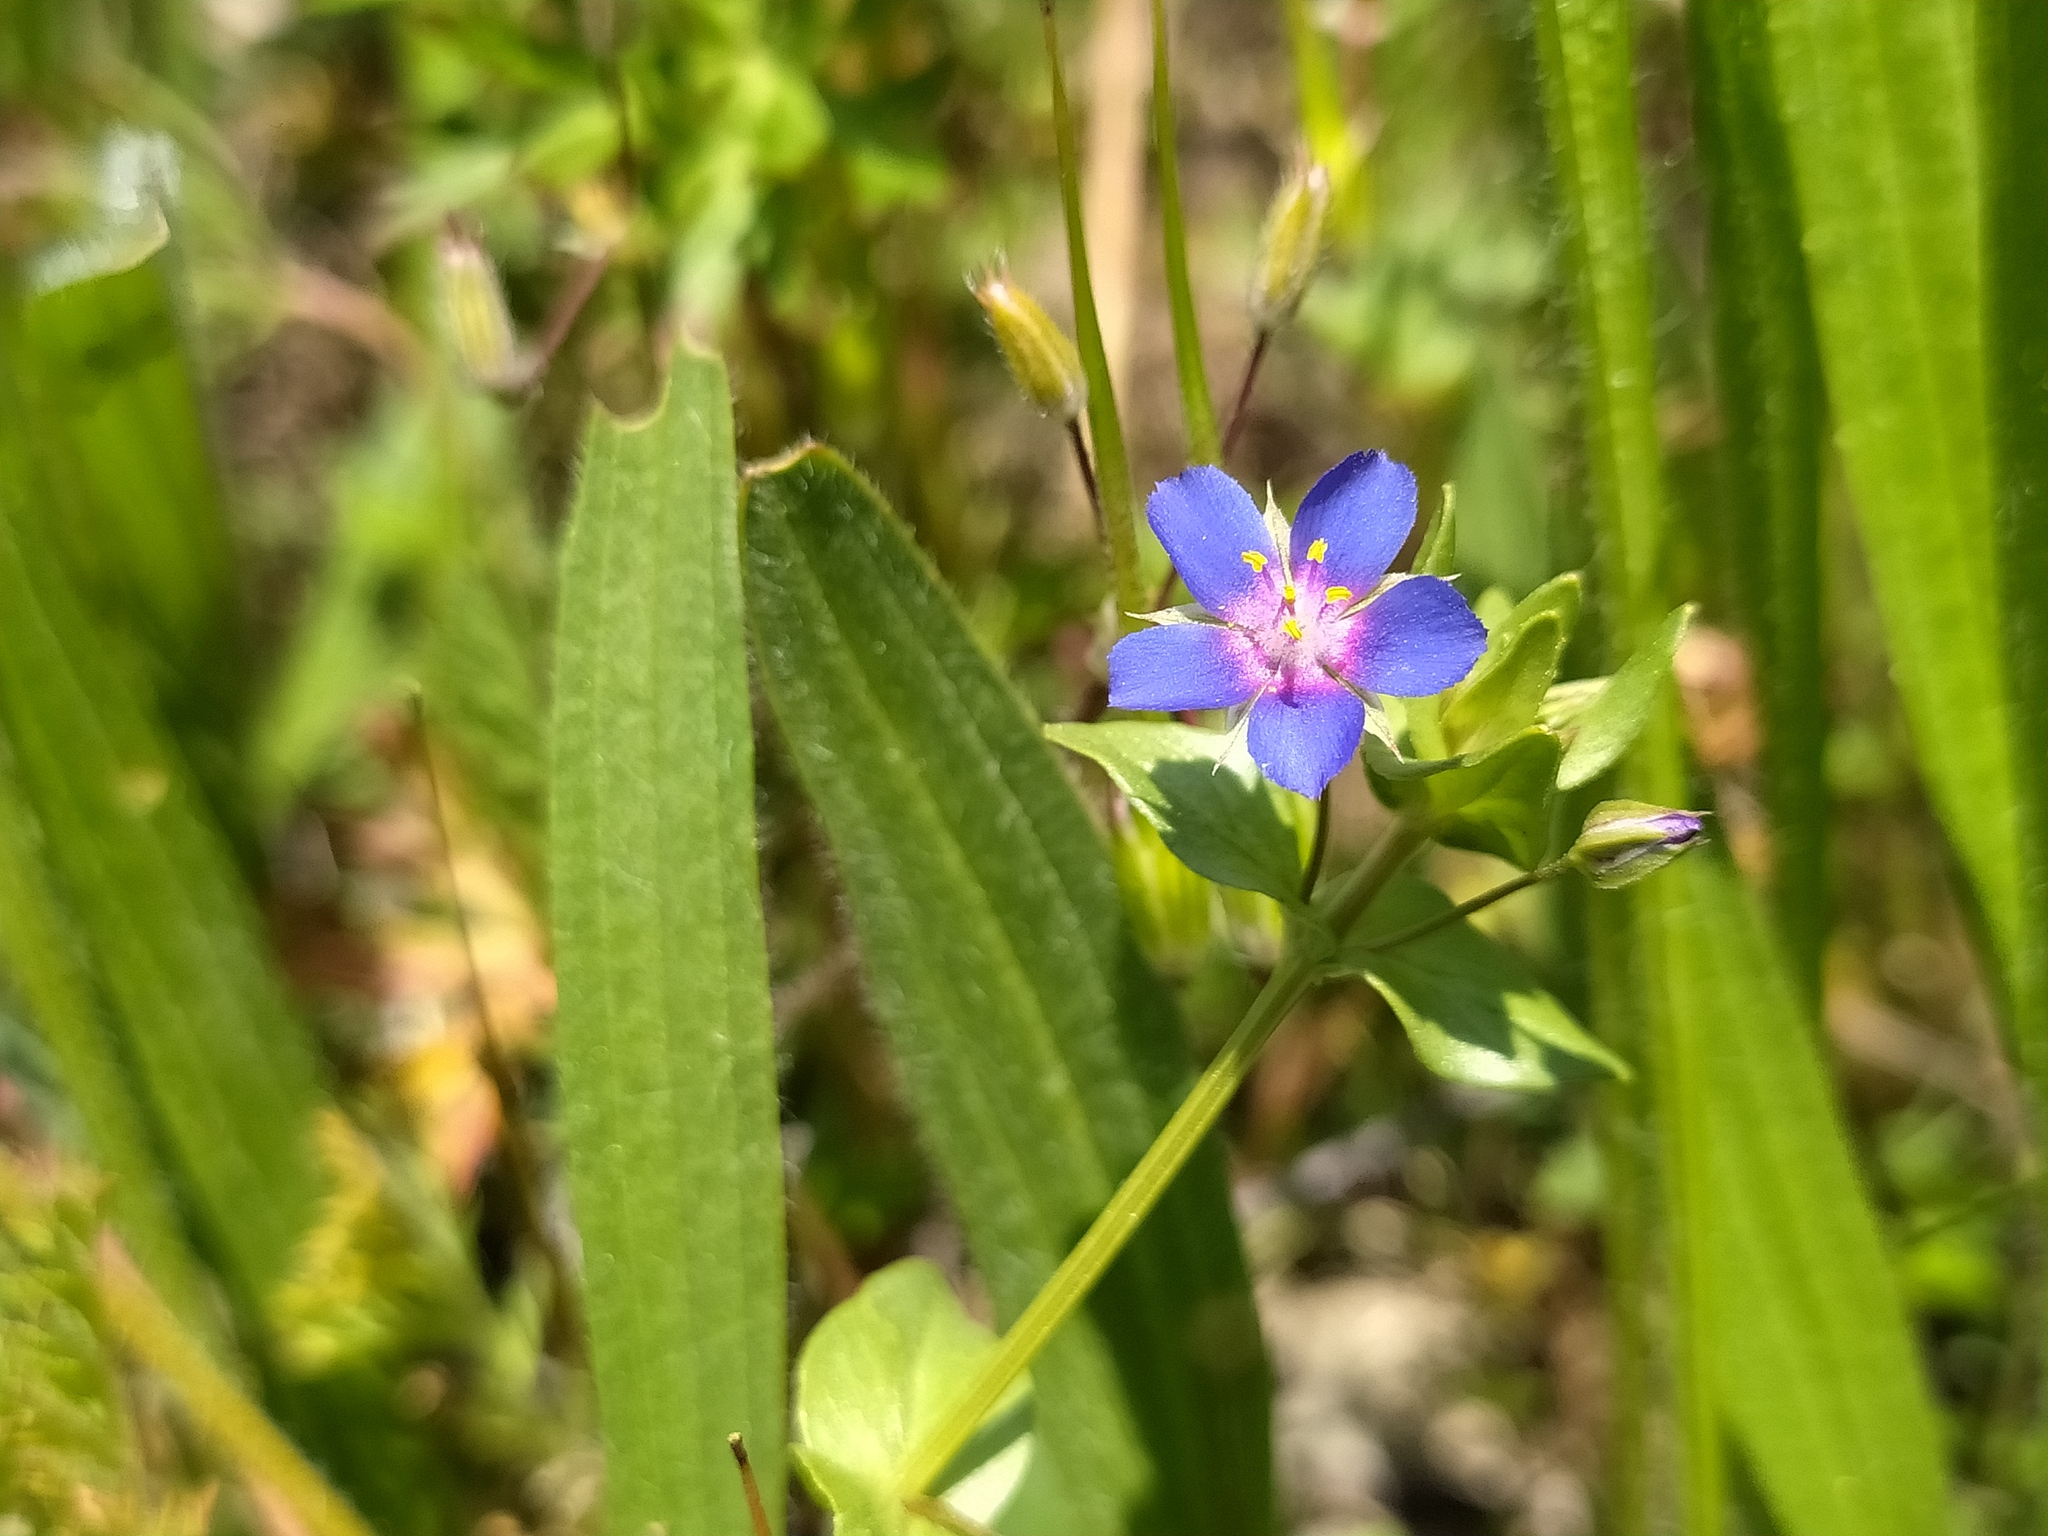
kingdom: Plantae
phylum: Tracheophyta
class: Magnoliopsida
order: Ericales
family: Primulaceae
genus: Lysimachia
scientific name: Lysimachia foemina
